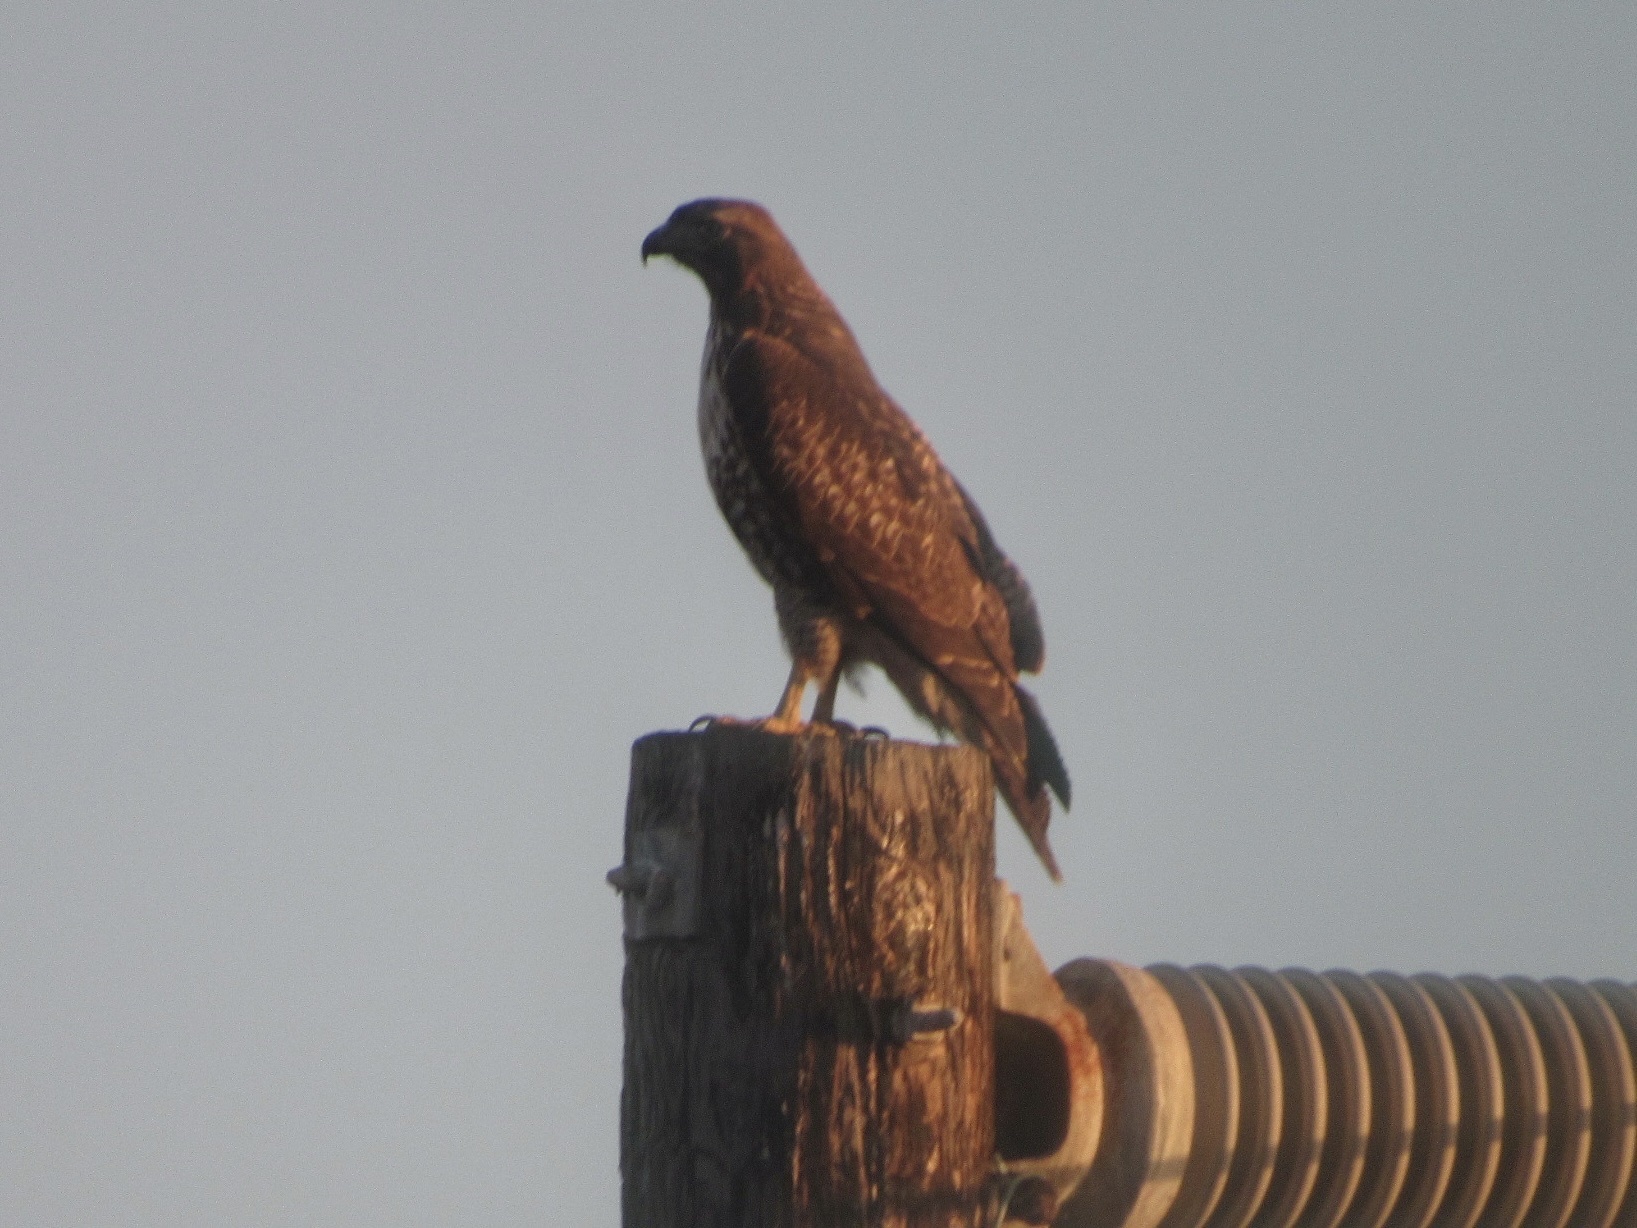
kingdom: Animalia
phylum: Chordata
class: Aves
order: Accipitriformes
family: Accipitridae
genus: Buteo
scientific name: Buteo jamaicensis
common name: Red-tailed hawk
